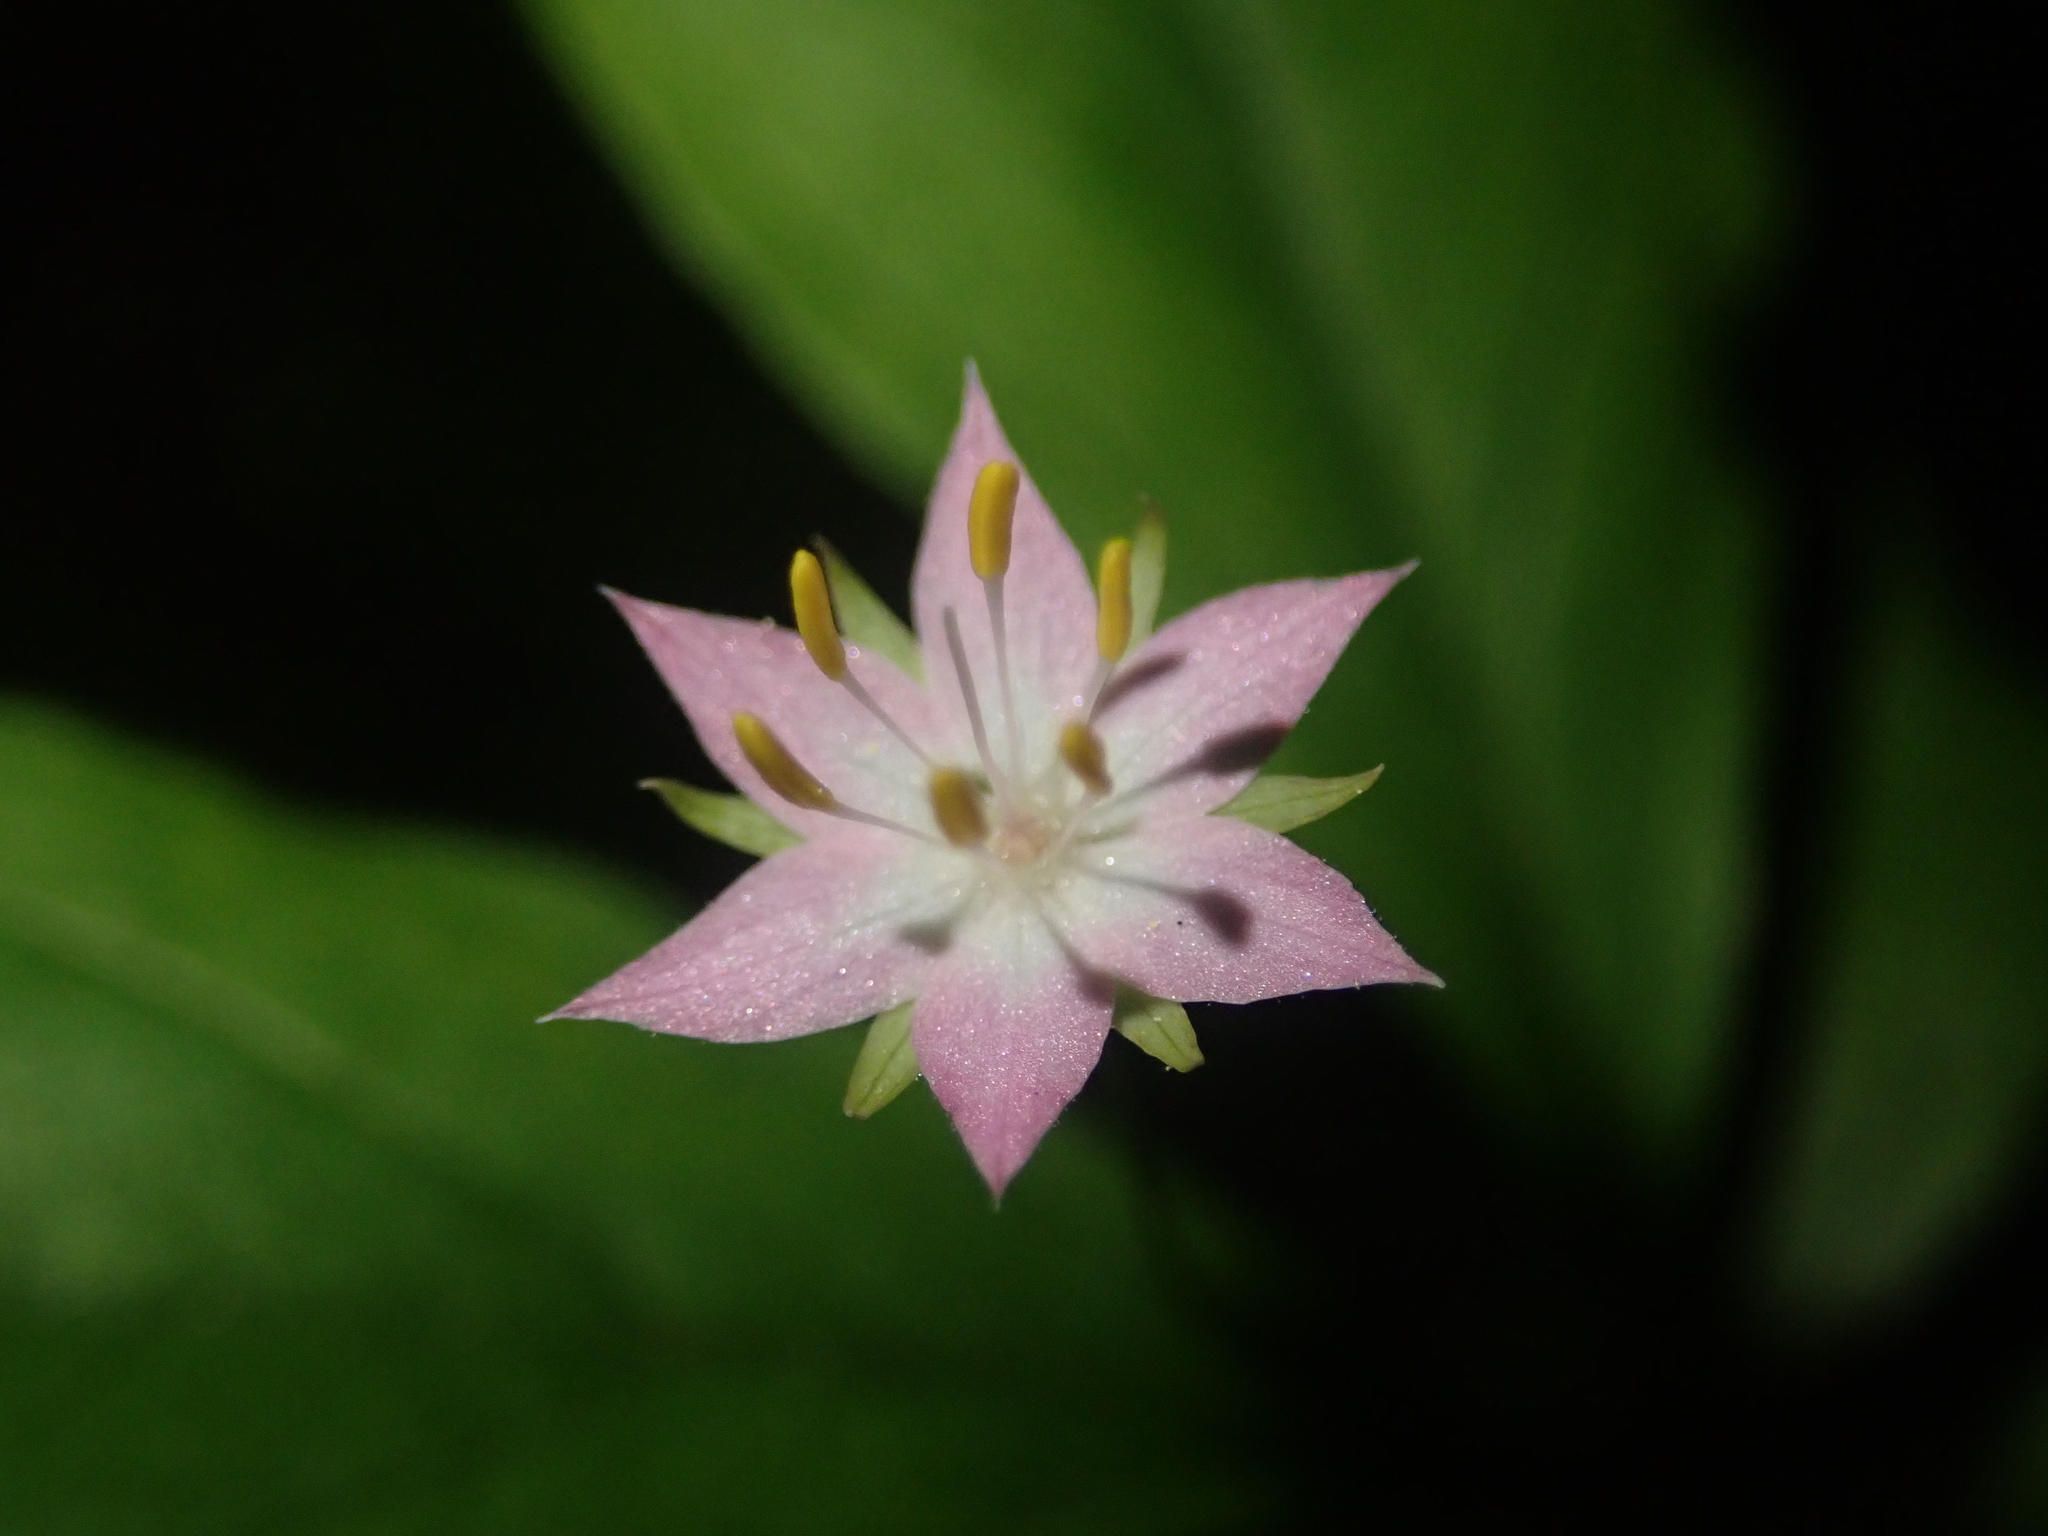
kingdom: Plantae
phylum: Tracheophyta
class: Magnoliopsida
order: Ericales
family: Primulaceae
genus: Lysimachia
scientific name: Lysimachia latifolia
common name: Pacific starflower
